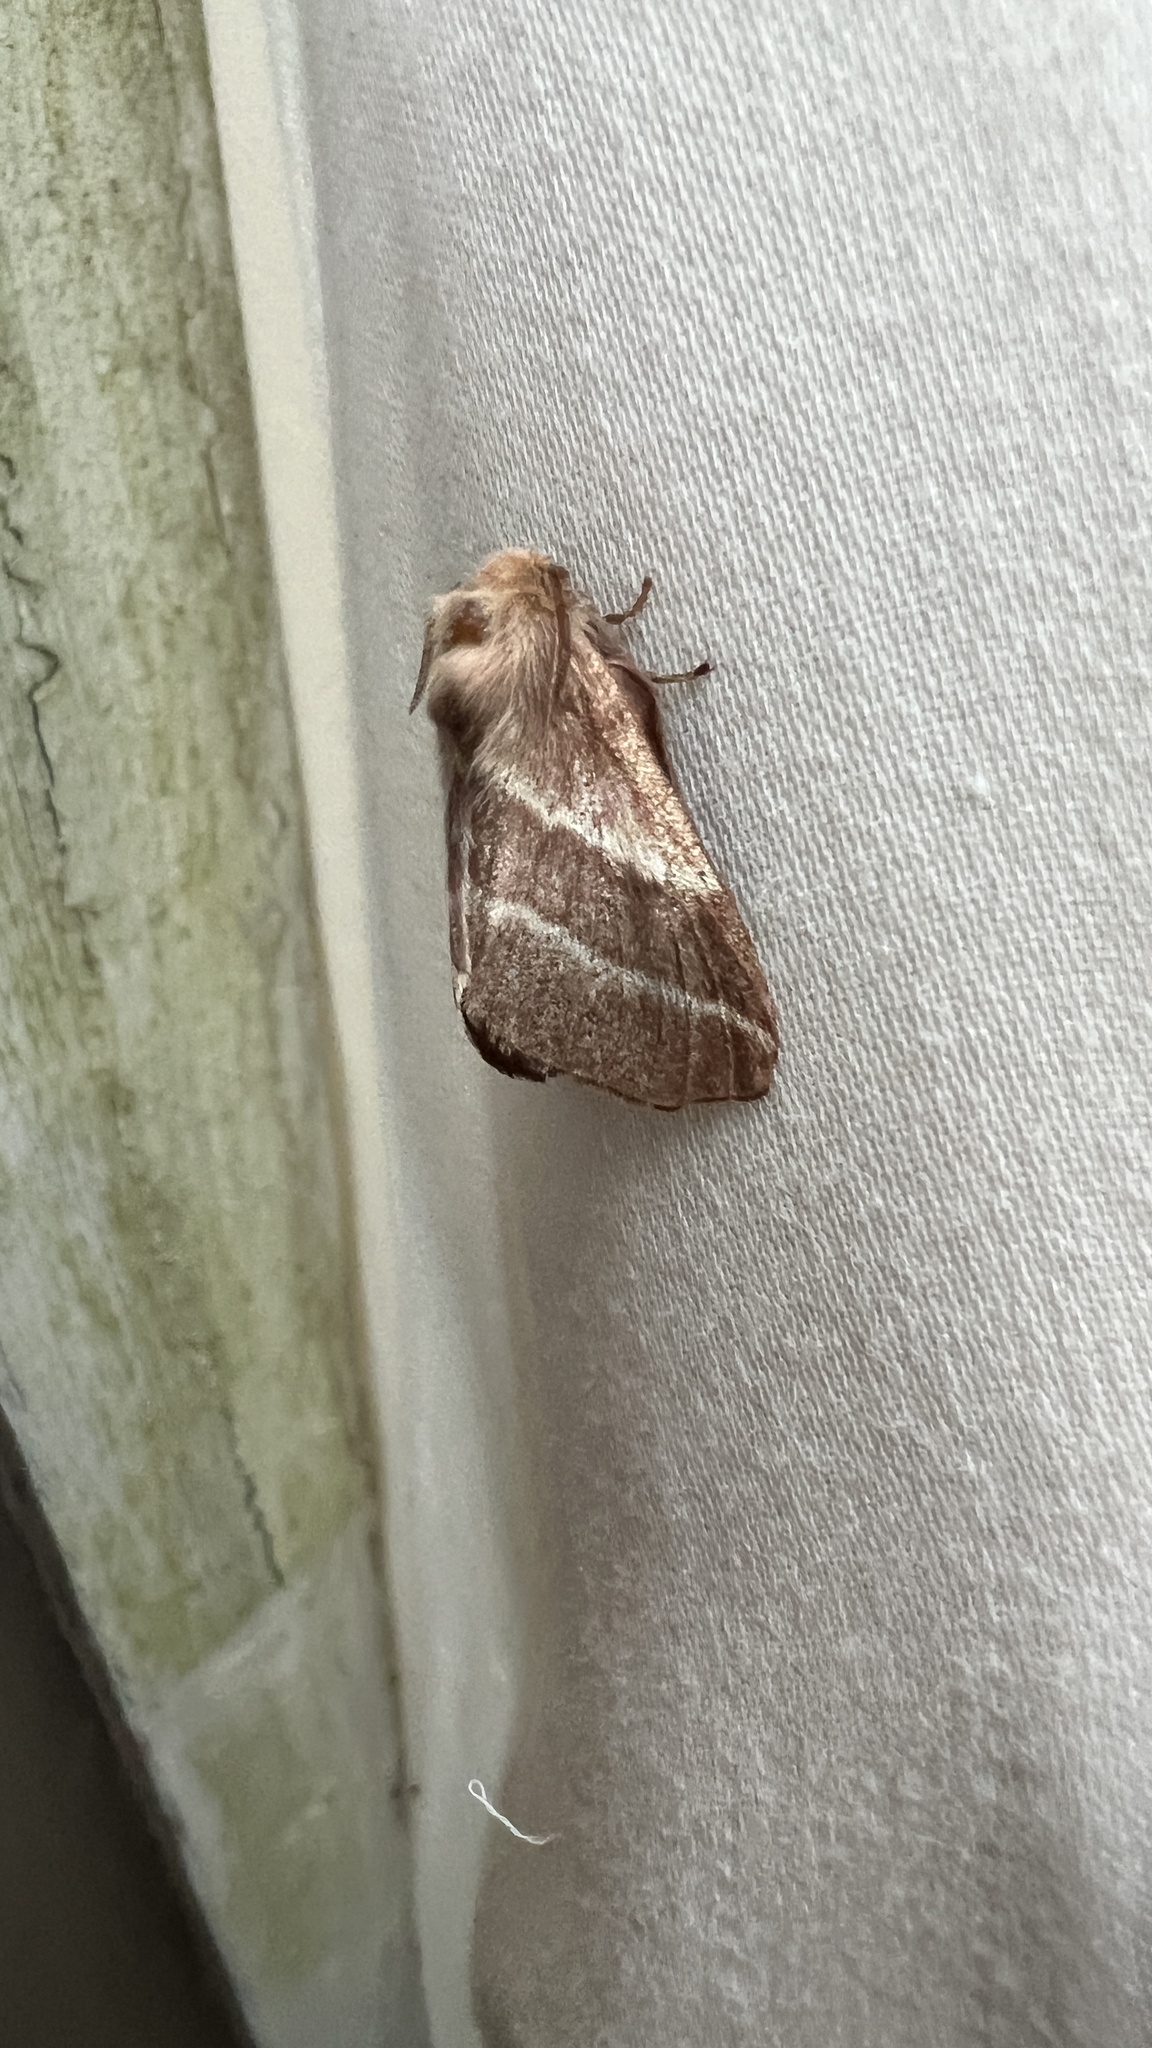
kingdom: Animalia
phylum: Arthropoda
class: Insecta
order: Lepidoptera
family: Lasiocampidae
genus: Malacosoma
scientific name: Malacosoma americana
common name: Eastern tent caterpillar moth
